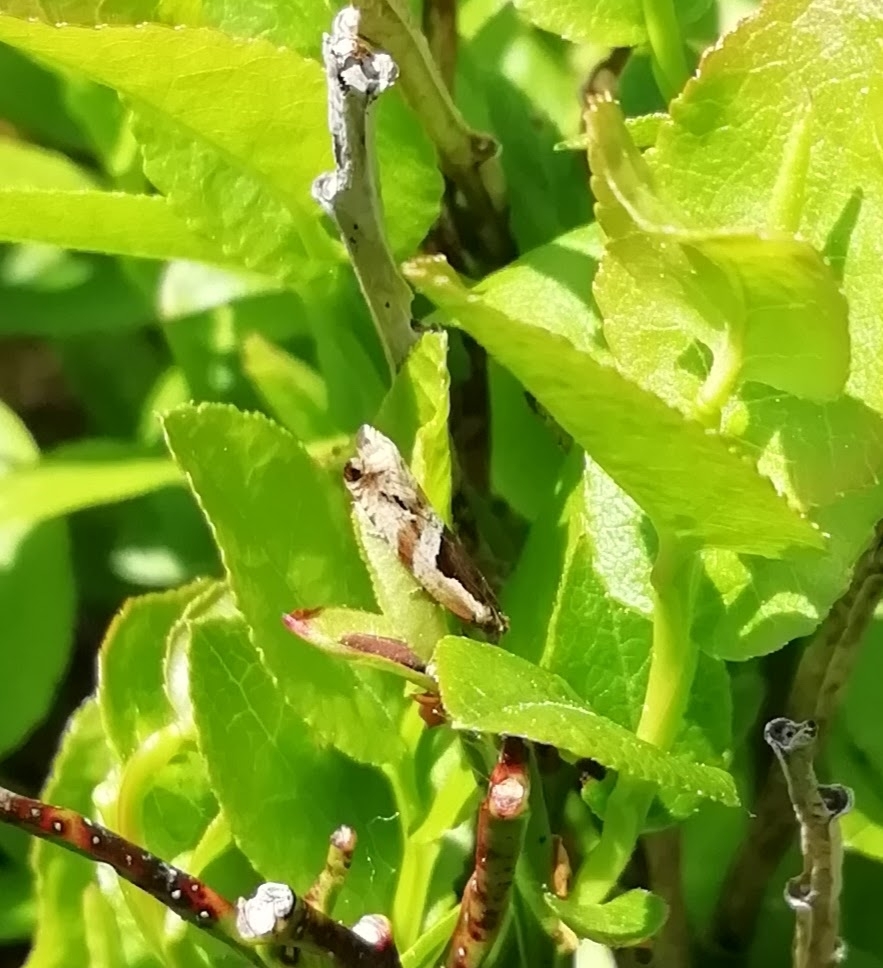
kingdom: Animalia
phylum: Arthropoda
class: Insecta
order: Lepidoptera
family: Tortricidae
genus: Ancylis
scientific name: Ancylis myrtillana
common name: Bilberry roller
